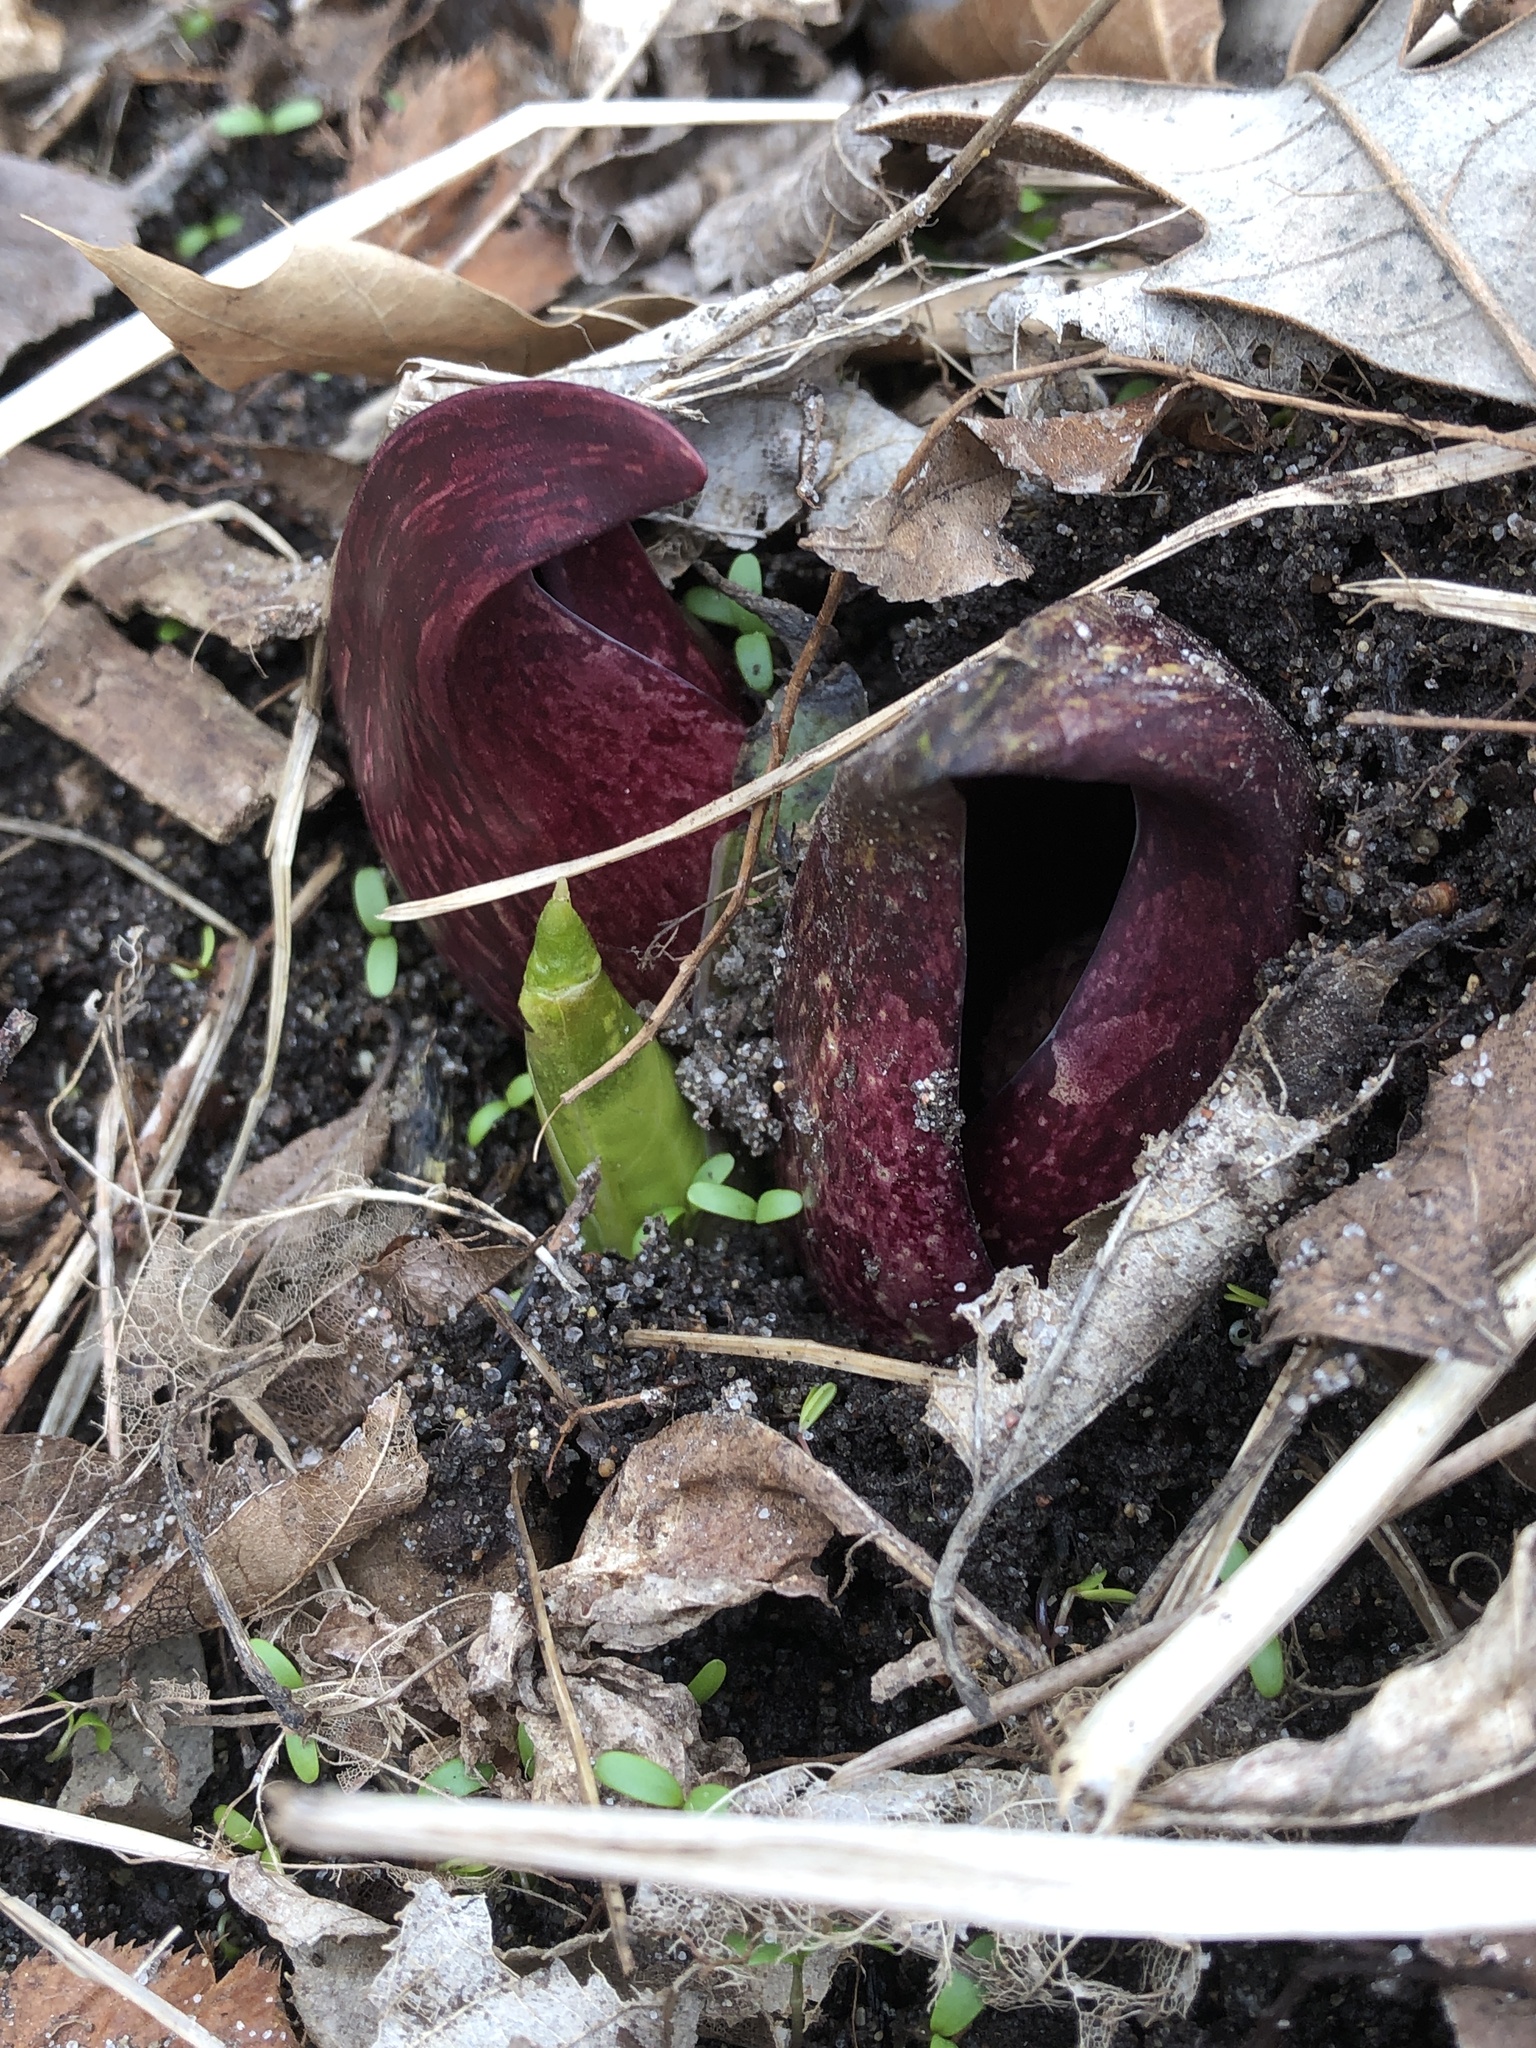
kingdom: Plantae
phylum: Tracheophyta
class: Liliopsida
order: Alismatales
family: Araceae
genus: Symplocarpus
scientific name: Symplocarpus foetidus
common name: Eastern skunk cabbage
